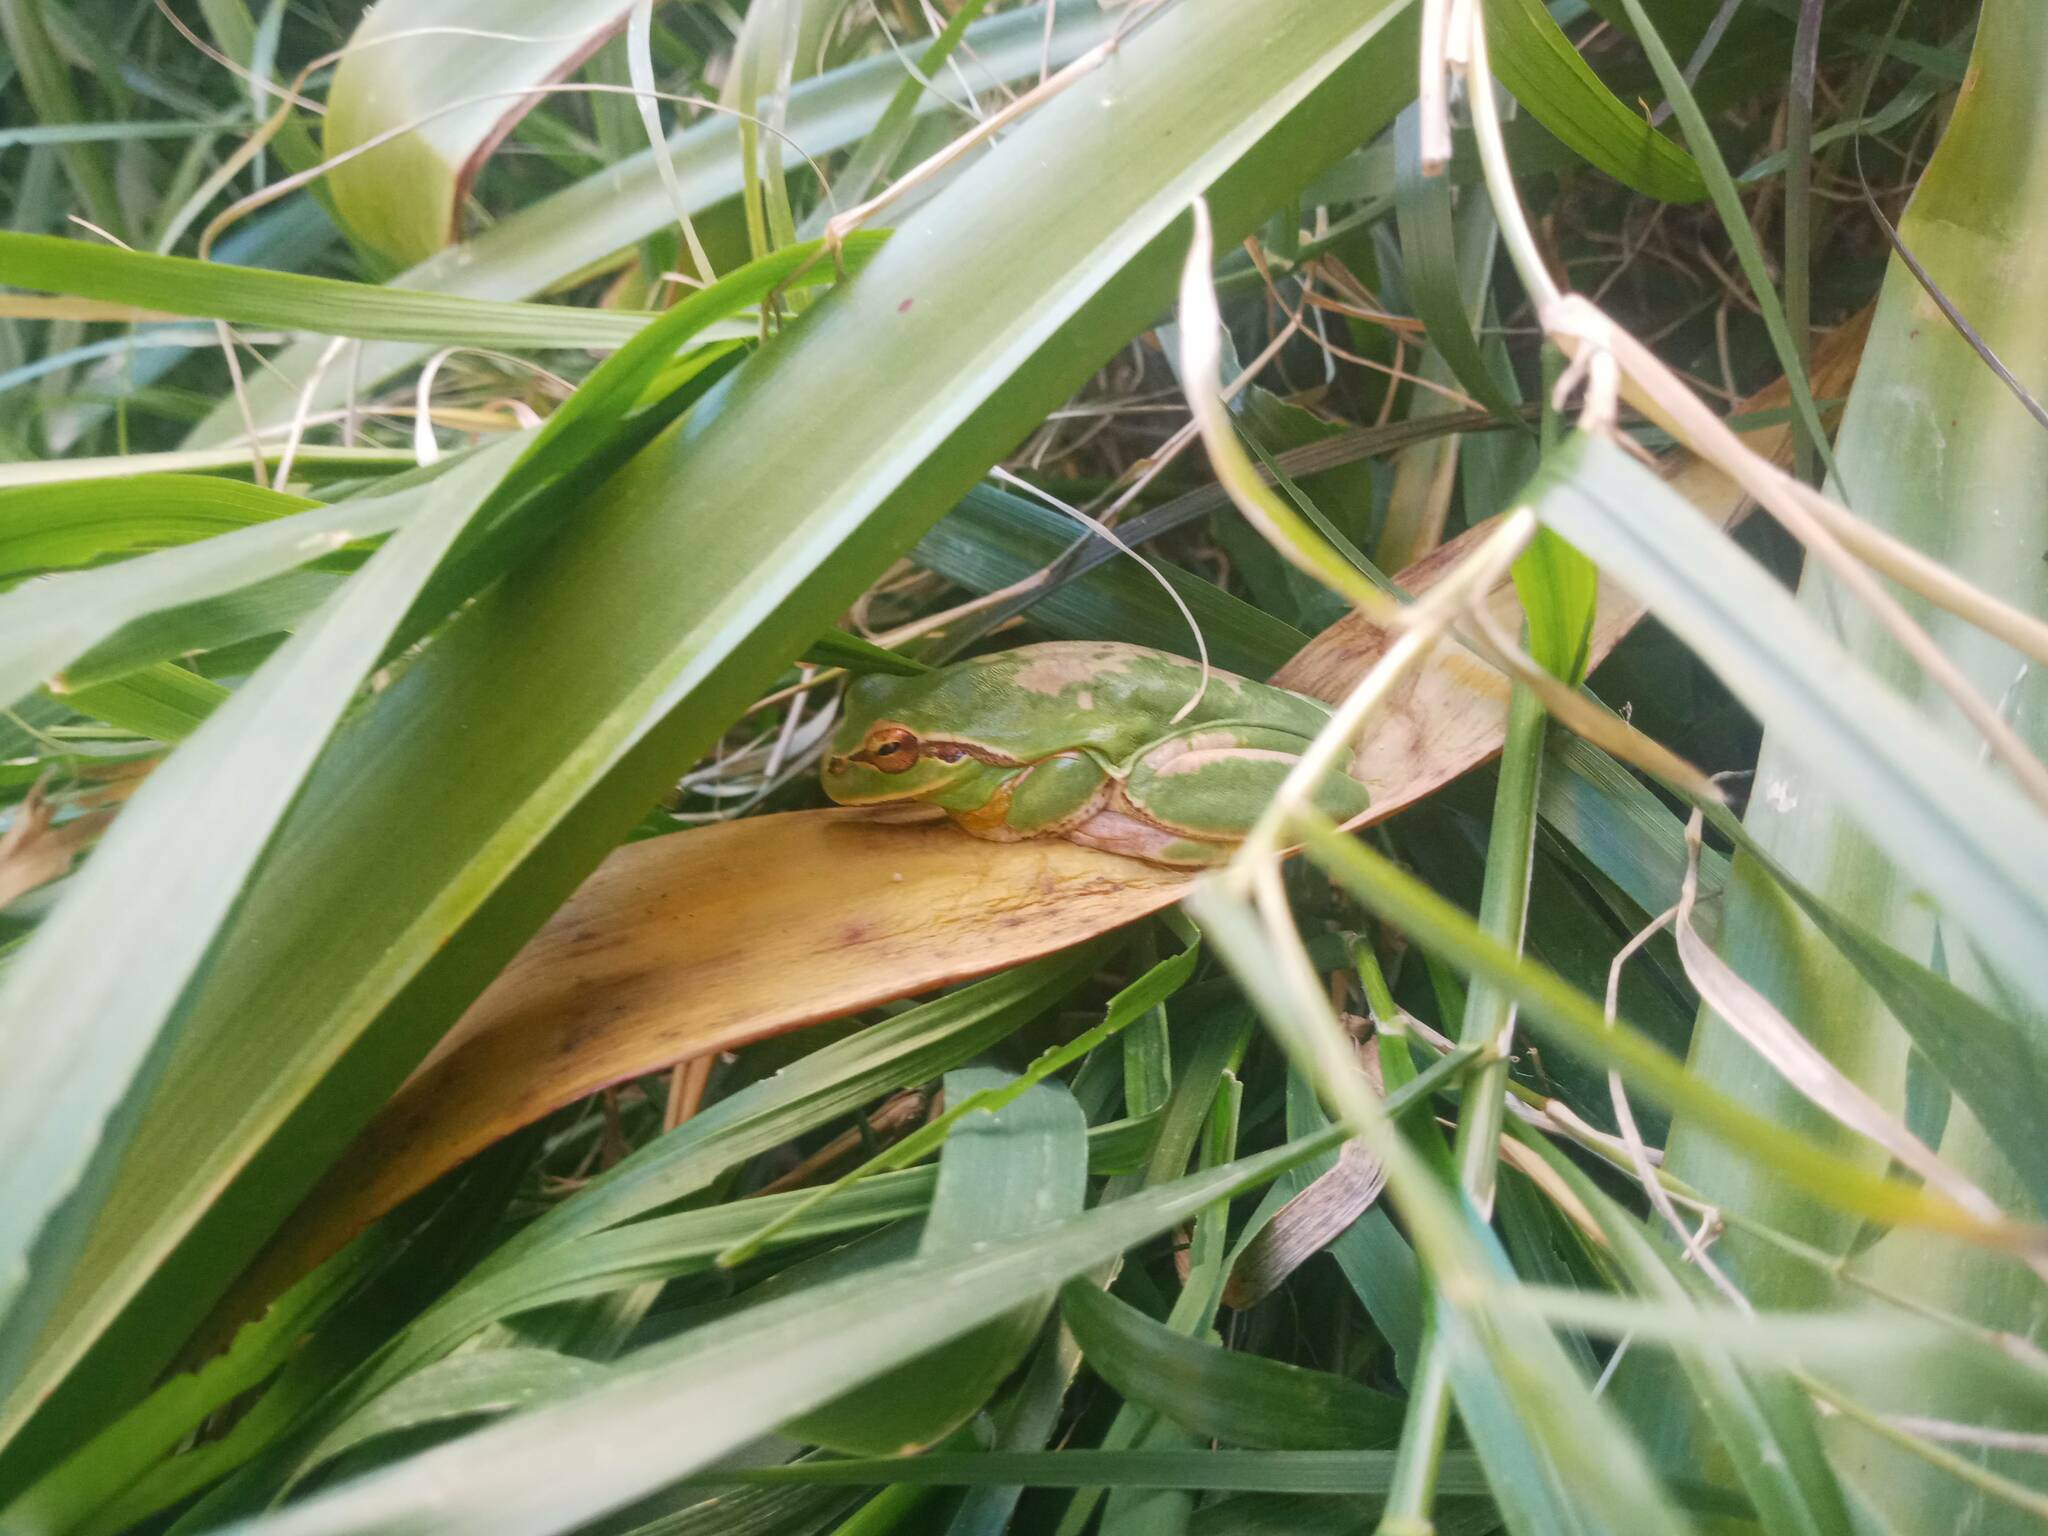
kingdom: Animalia
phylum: Chordata
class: Amphibia
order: Anura
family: Hylidae
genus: Hyla
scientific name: Hyla meridionalis
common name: Stripeless tree frog
